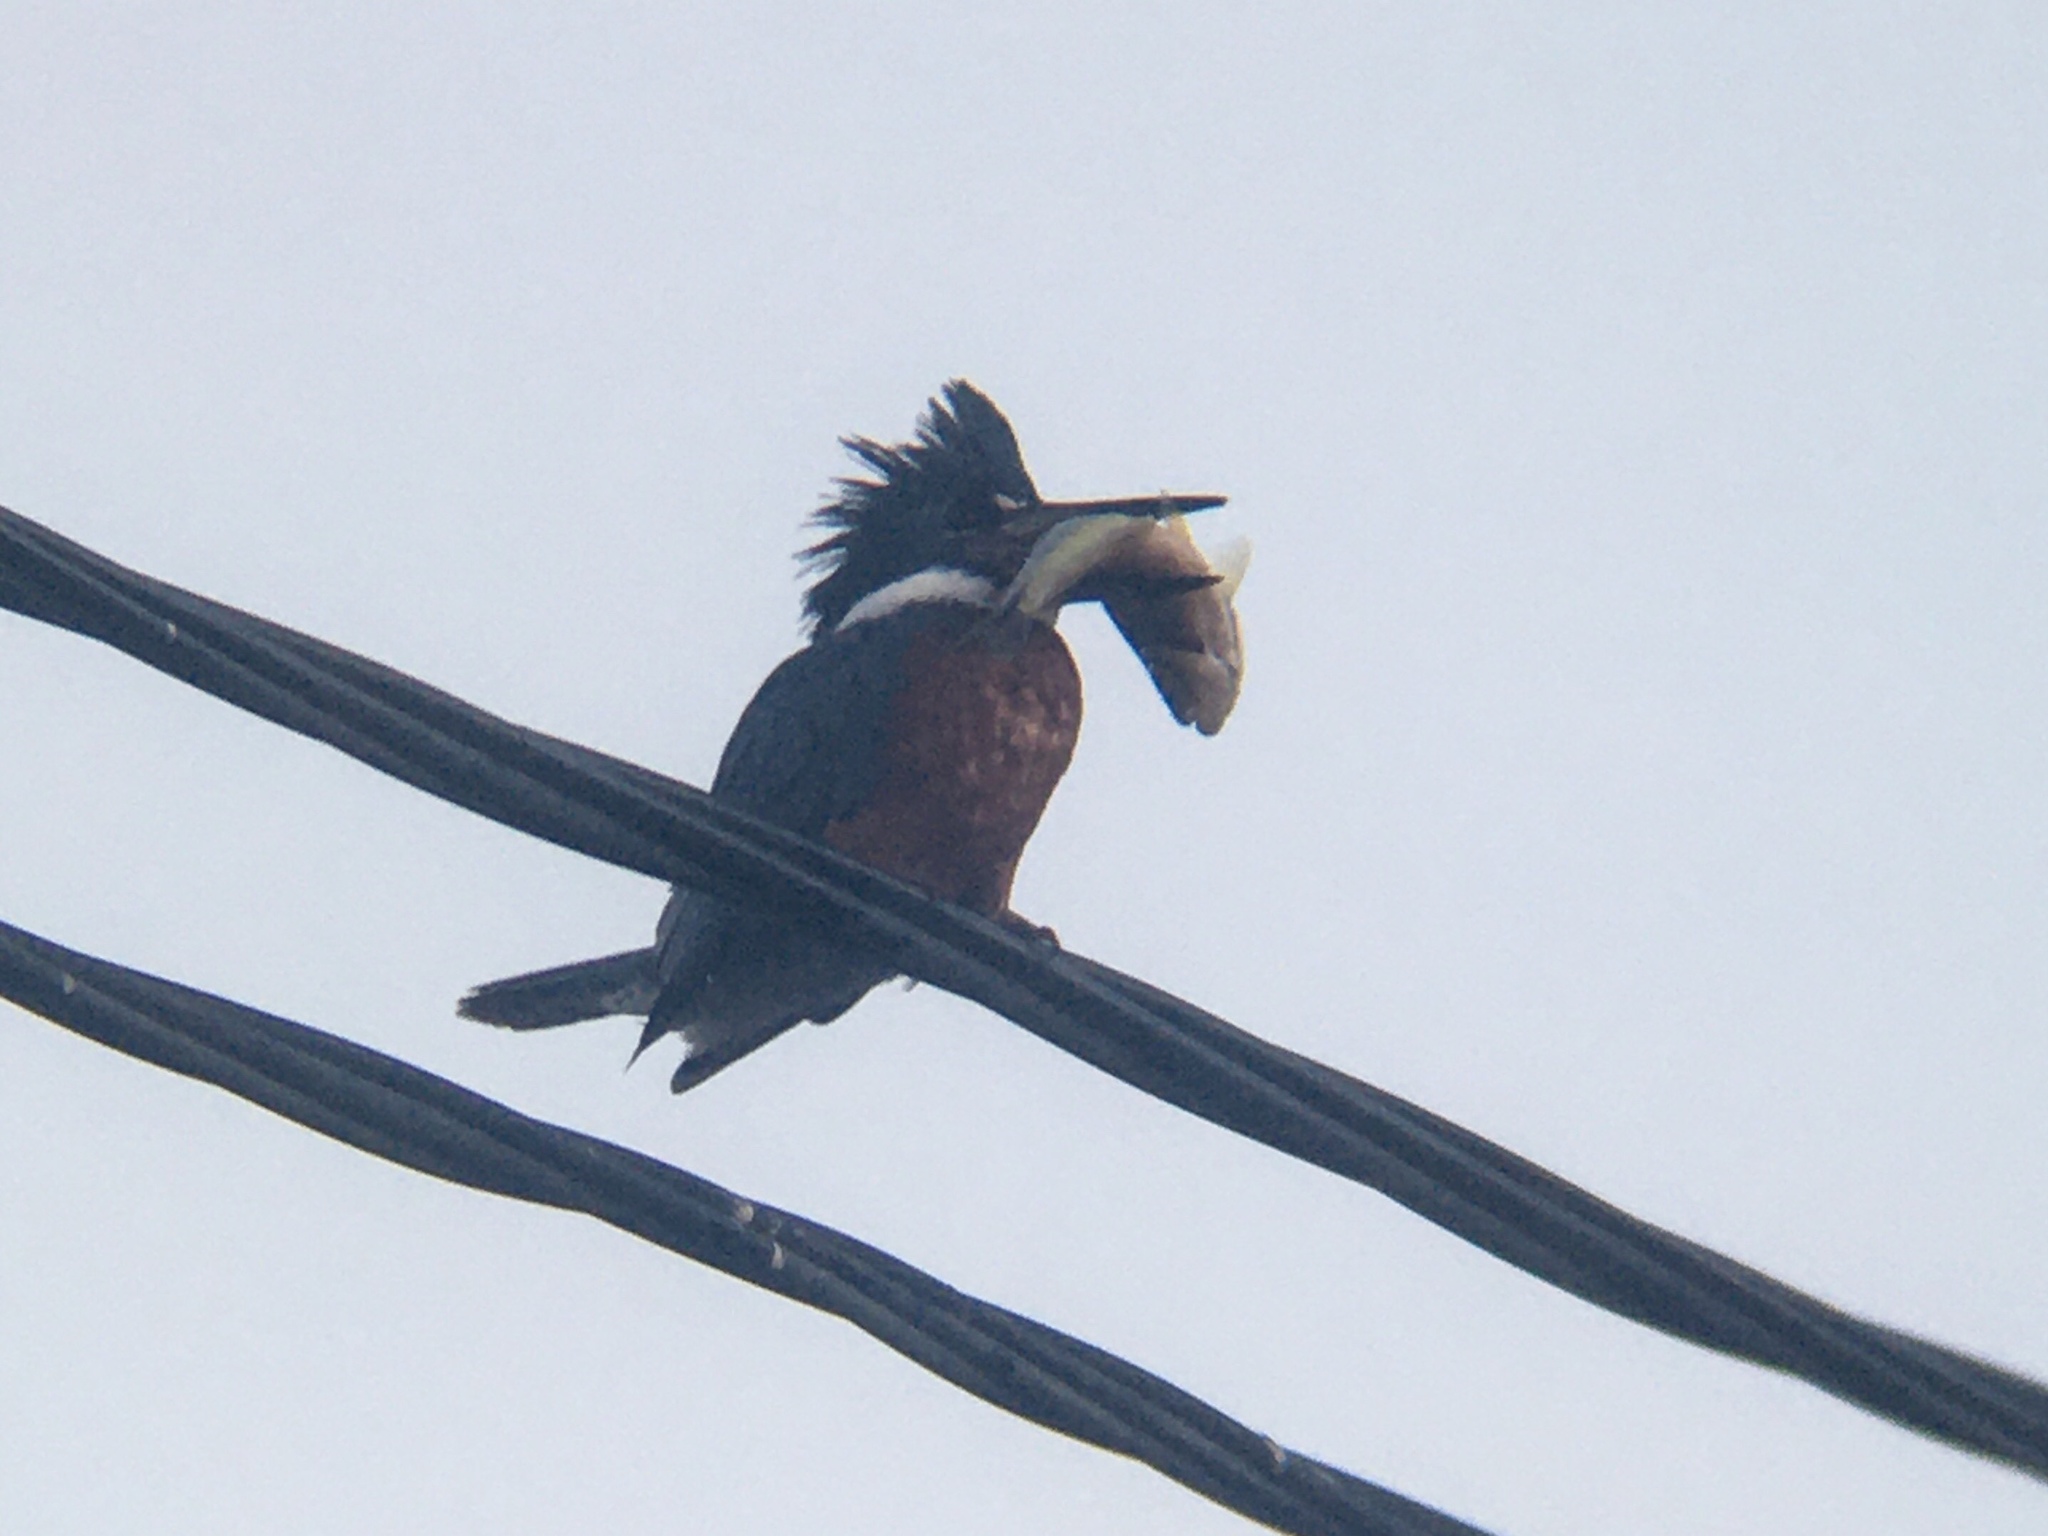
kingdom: Animalia
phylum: Chordata
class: Aves
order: Coraciiformes
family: Alcedinidae
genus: Megaceryle
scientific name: Megaceryle torquata
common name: Ringed kingfisher
